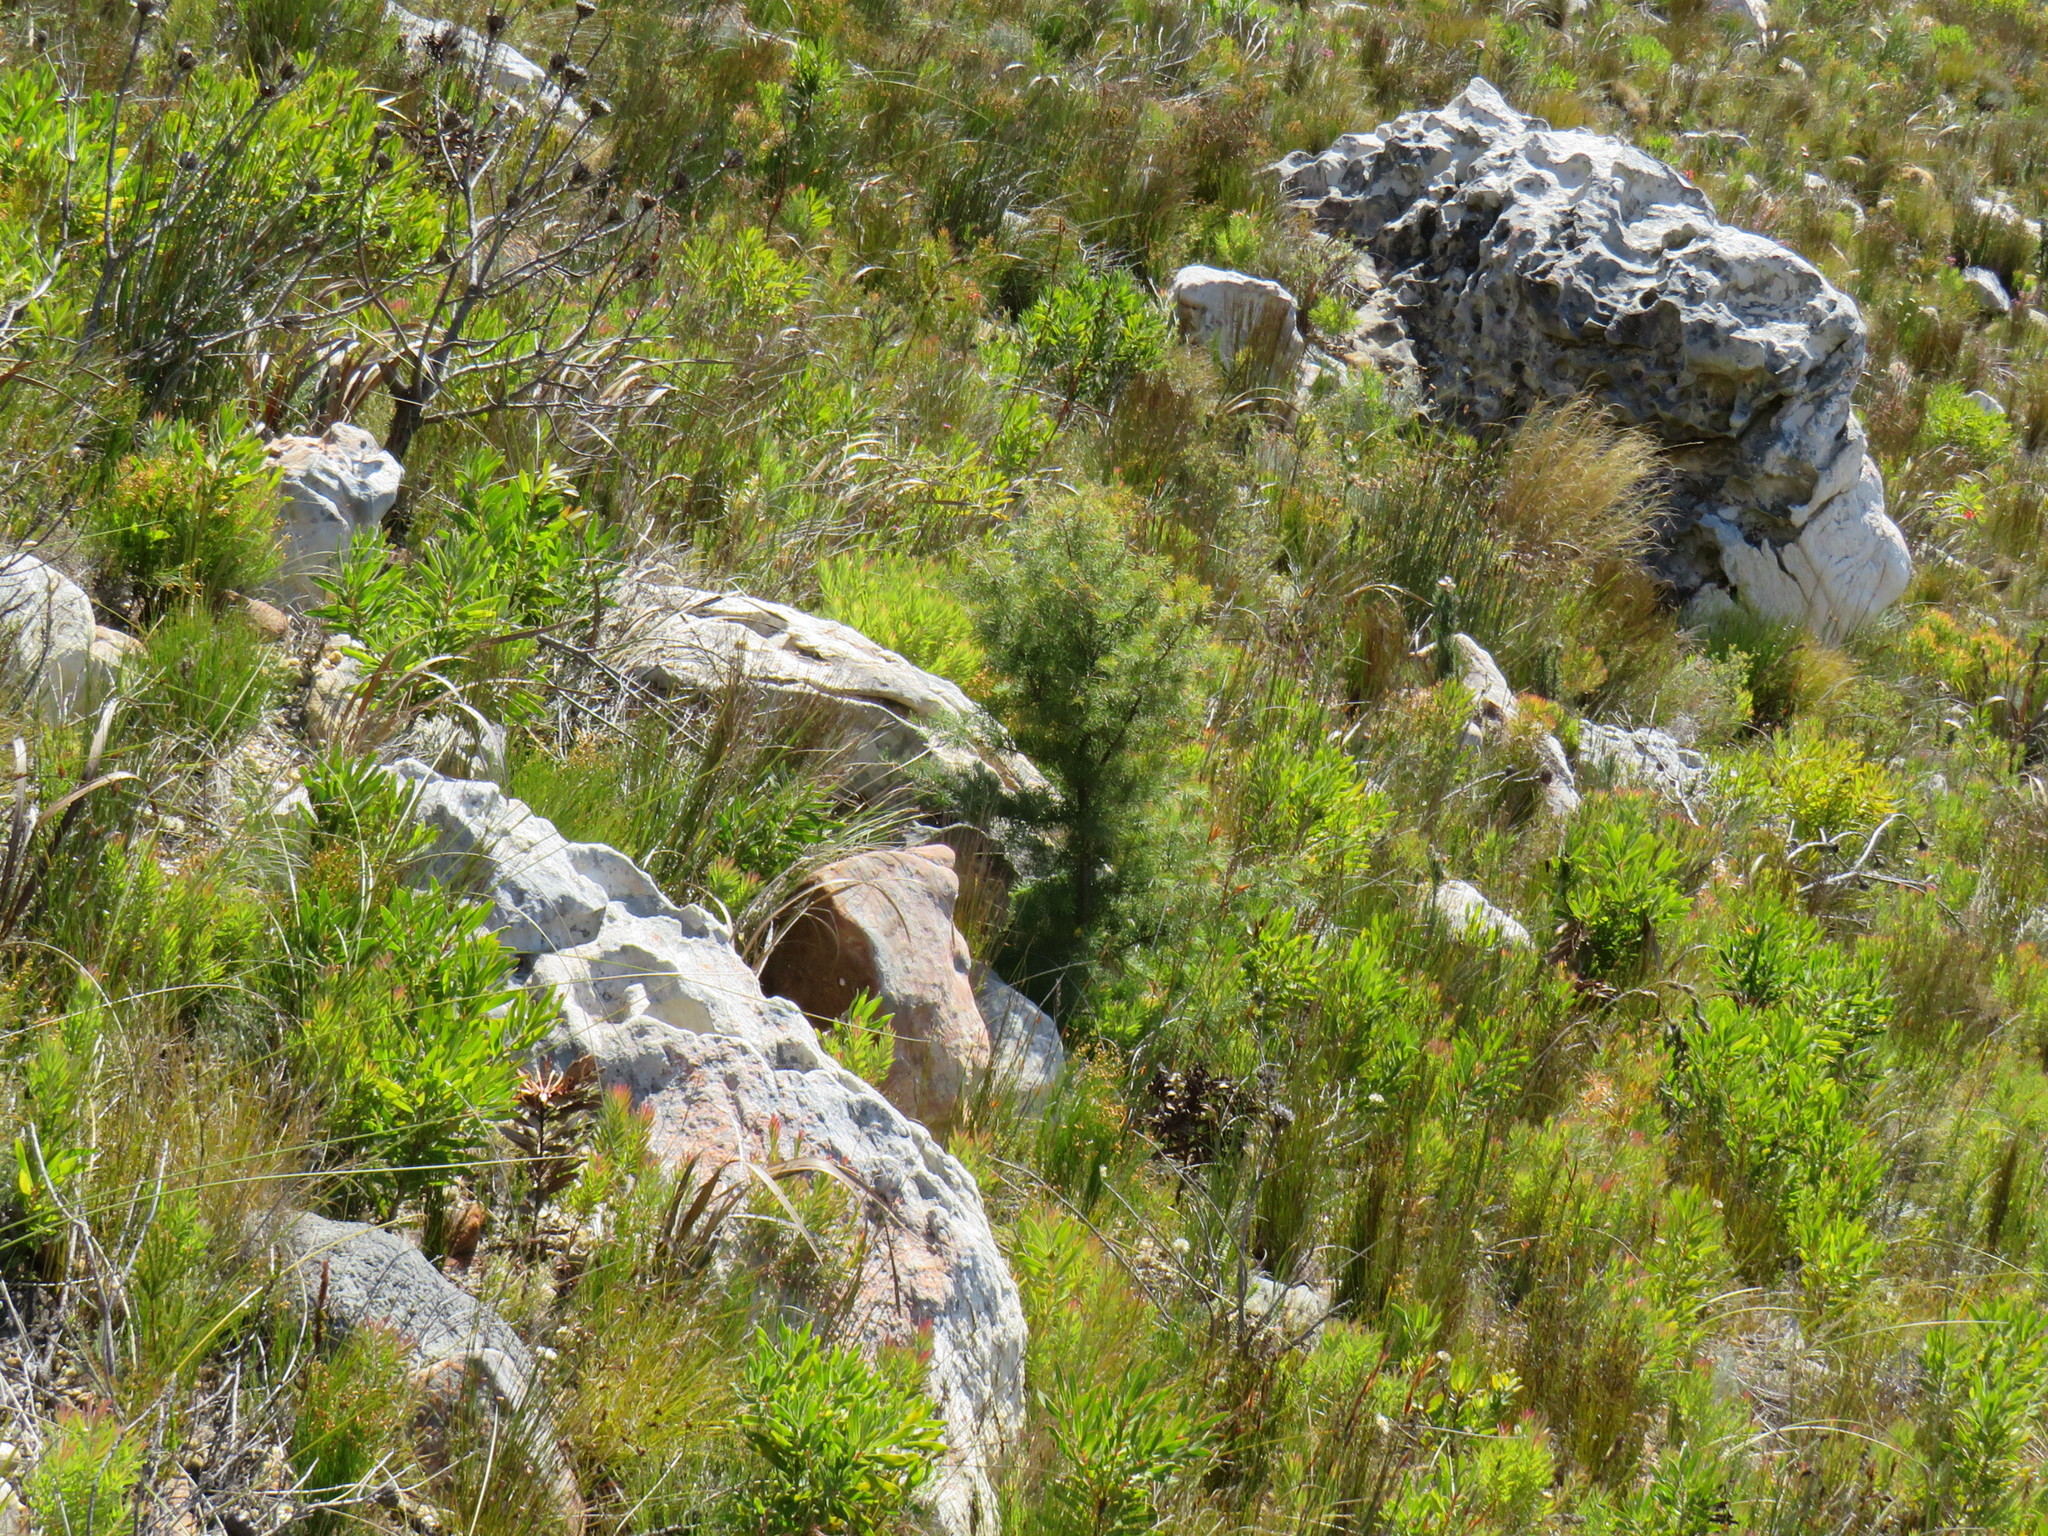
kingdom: Plantae
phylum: Tracheophyta
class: Magnoliopsida
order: Proteales
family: Proteaceae
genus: Hakea
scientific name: Hakea sericea
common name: Needle bush
